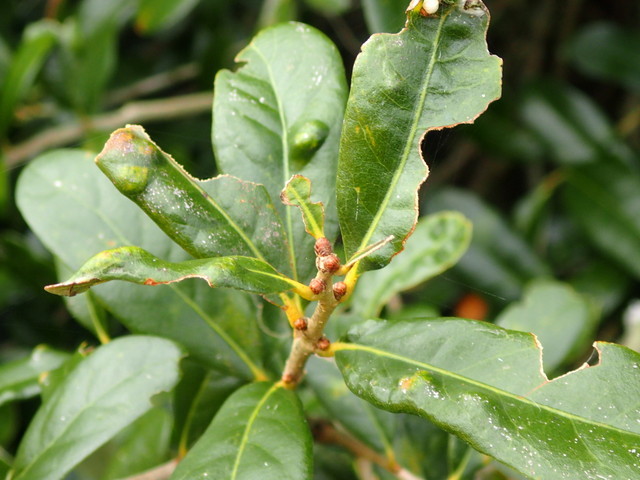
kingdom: Animalia
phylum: Arthropoda
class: Arachnida
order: Trombidiformes
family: Eriophyidae
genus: Aceria
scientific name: Aceria quercina
